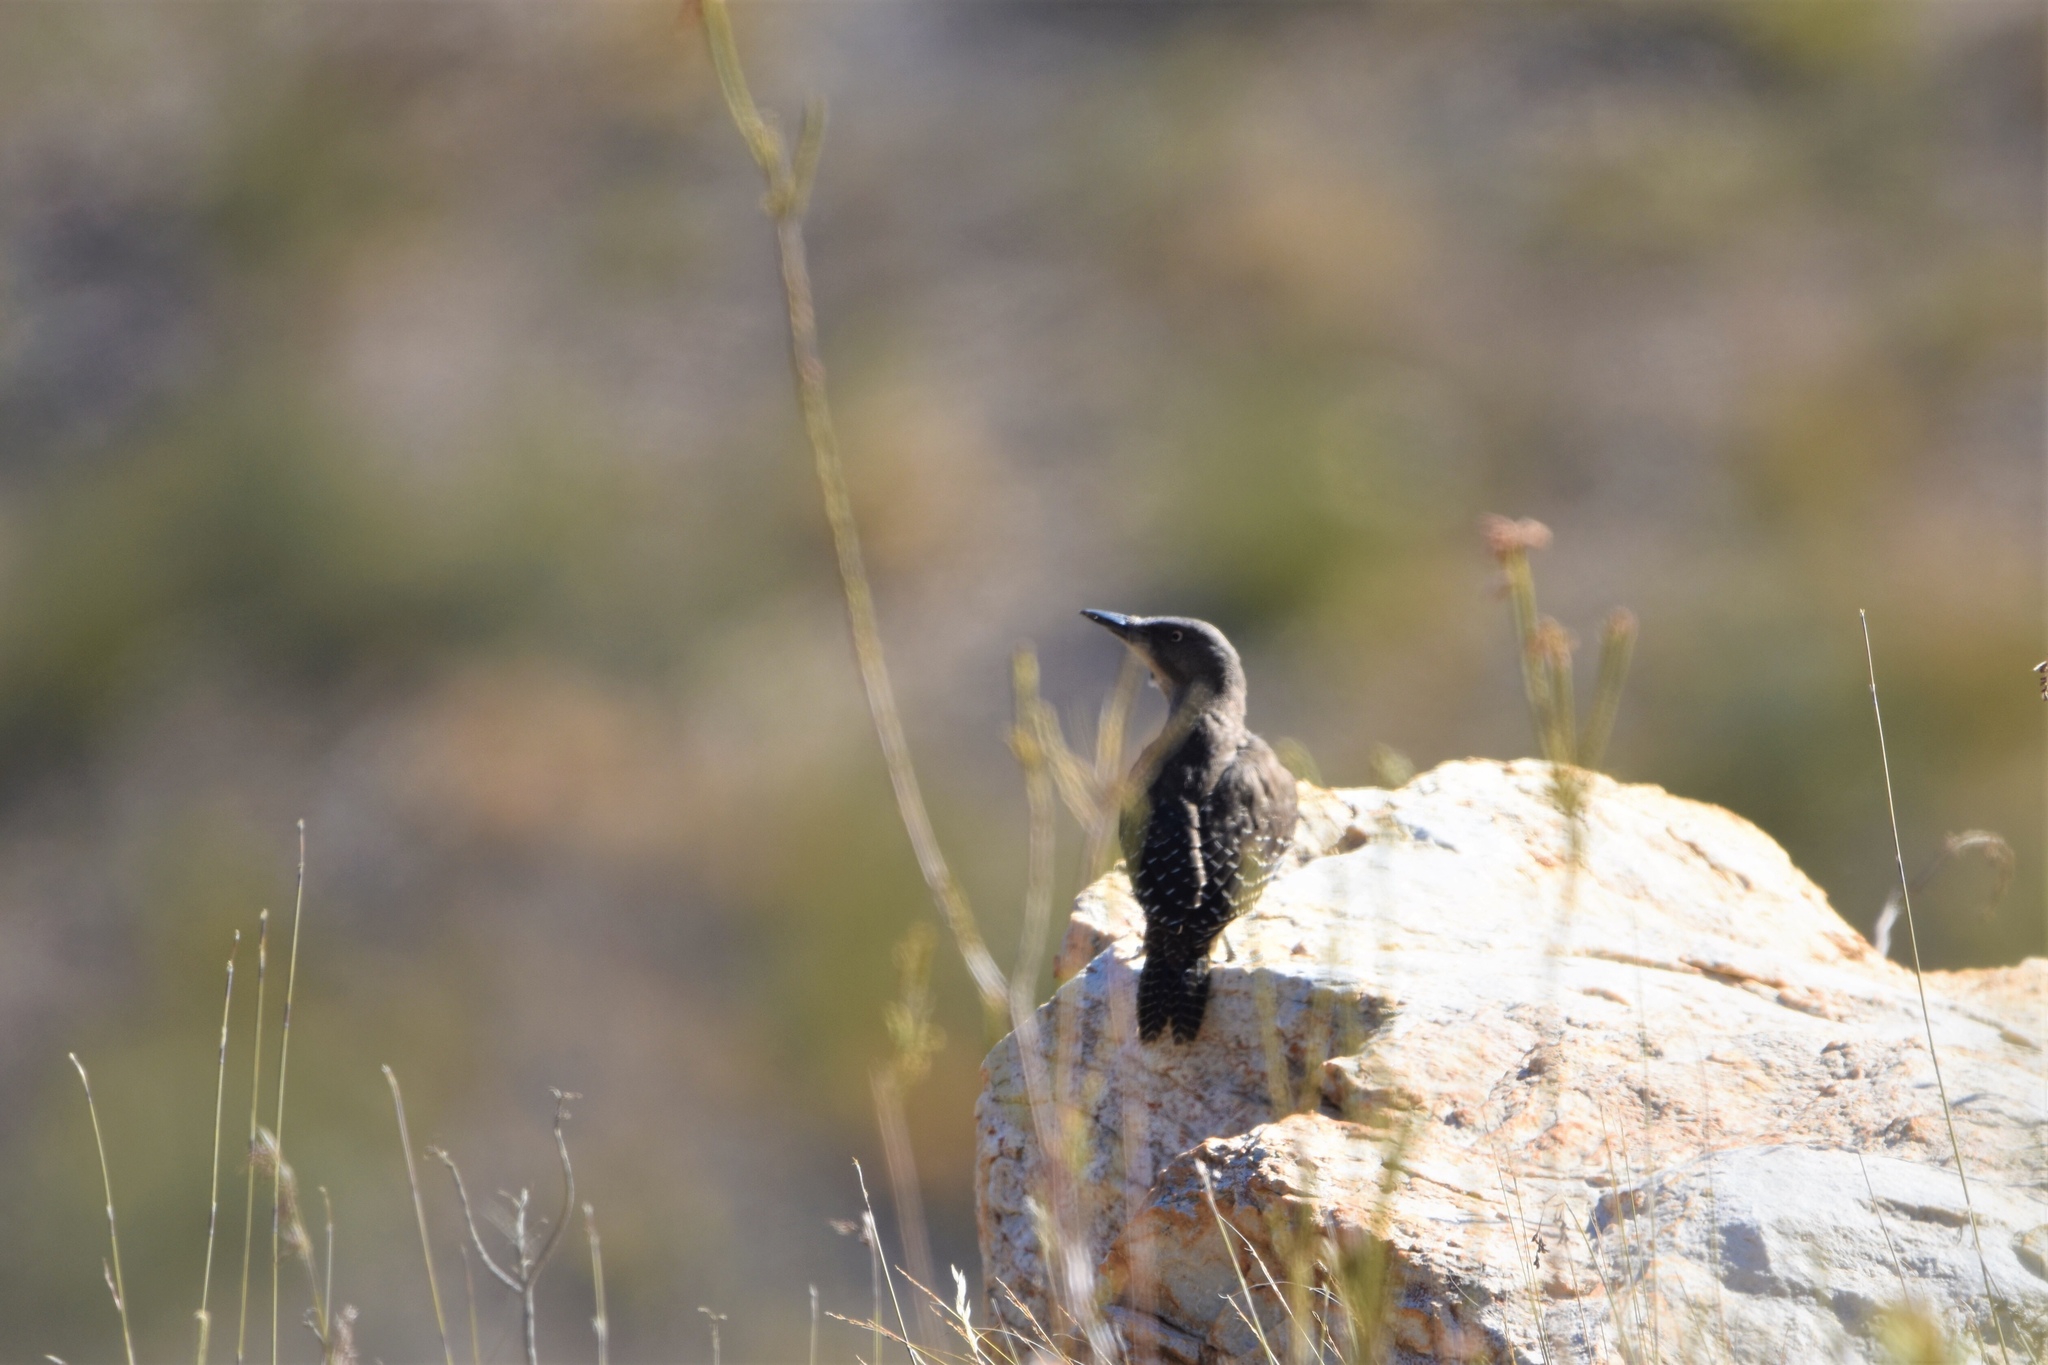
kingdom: Animalia
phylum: Chordata
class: Aves
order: Piciformes
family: Picidae
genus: Geocolaptes
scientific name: Geocolaptes olivaceus
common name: Ground woodpecker
